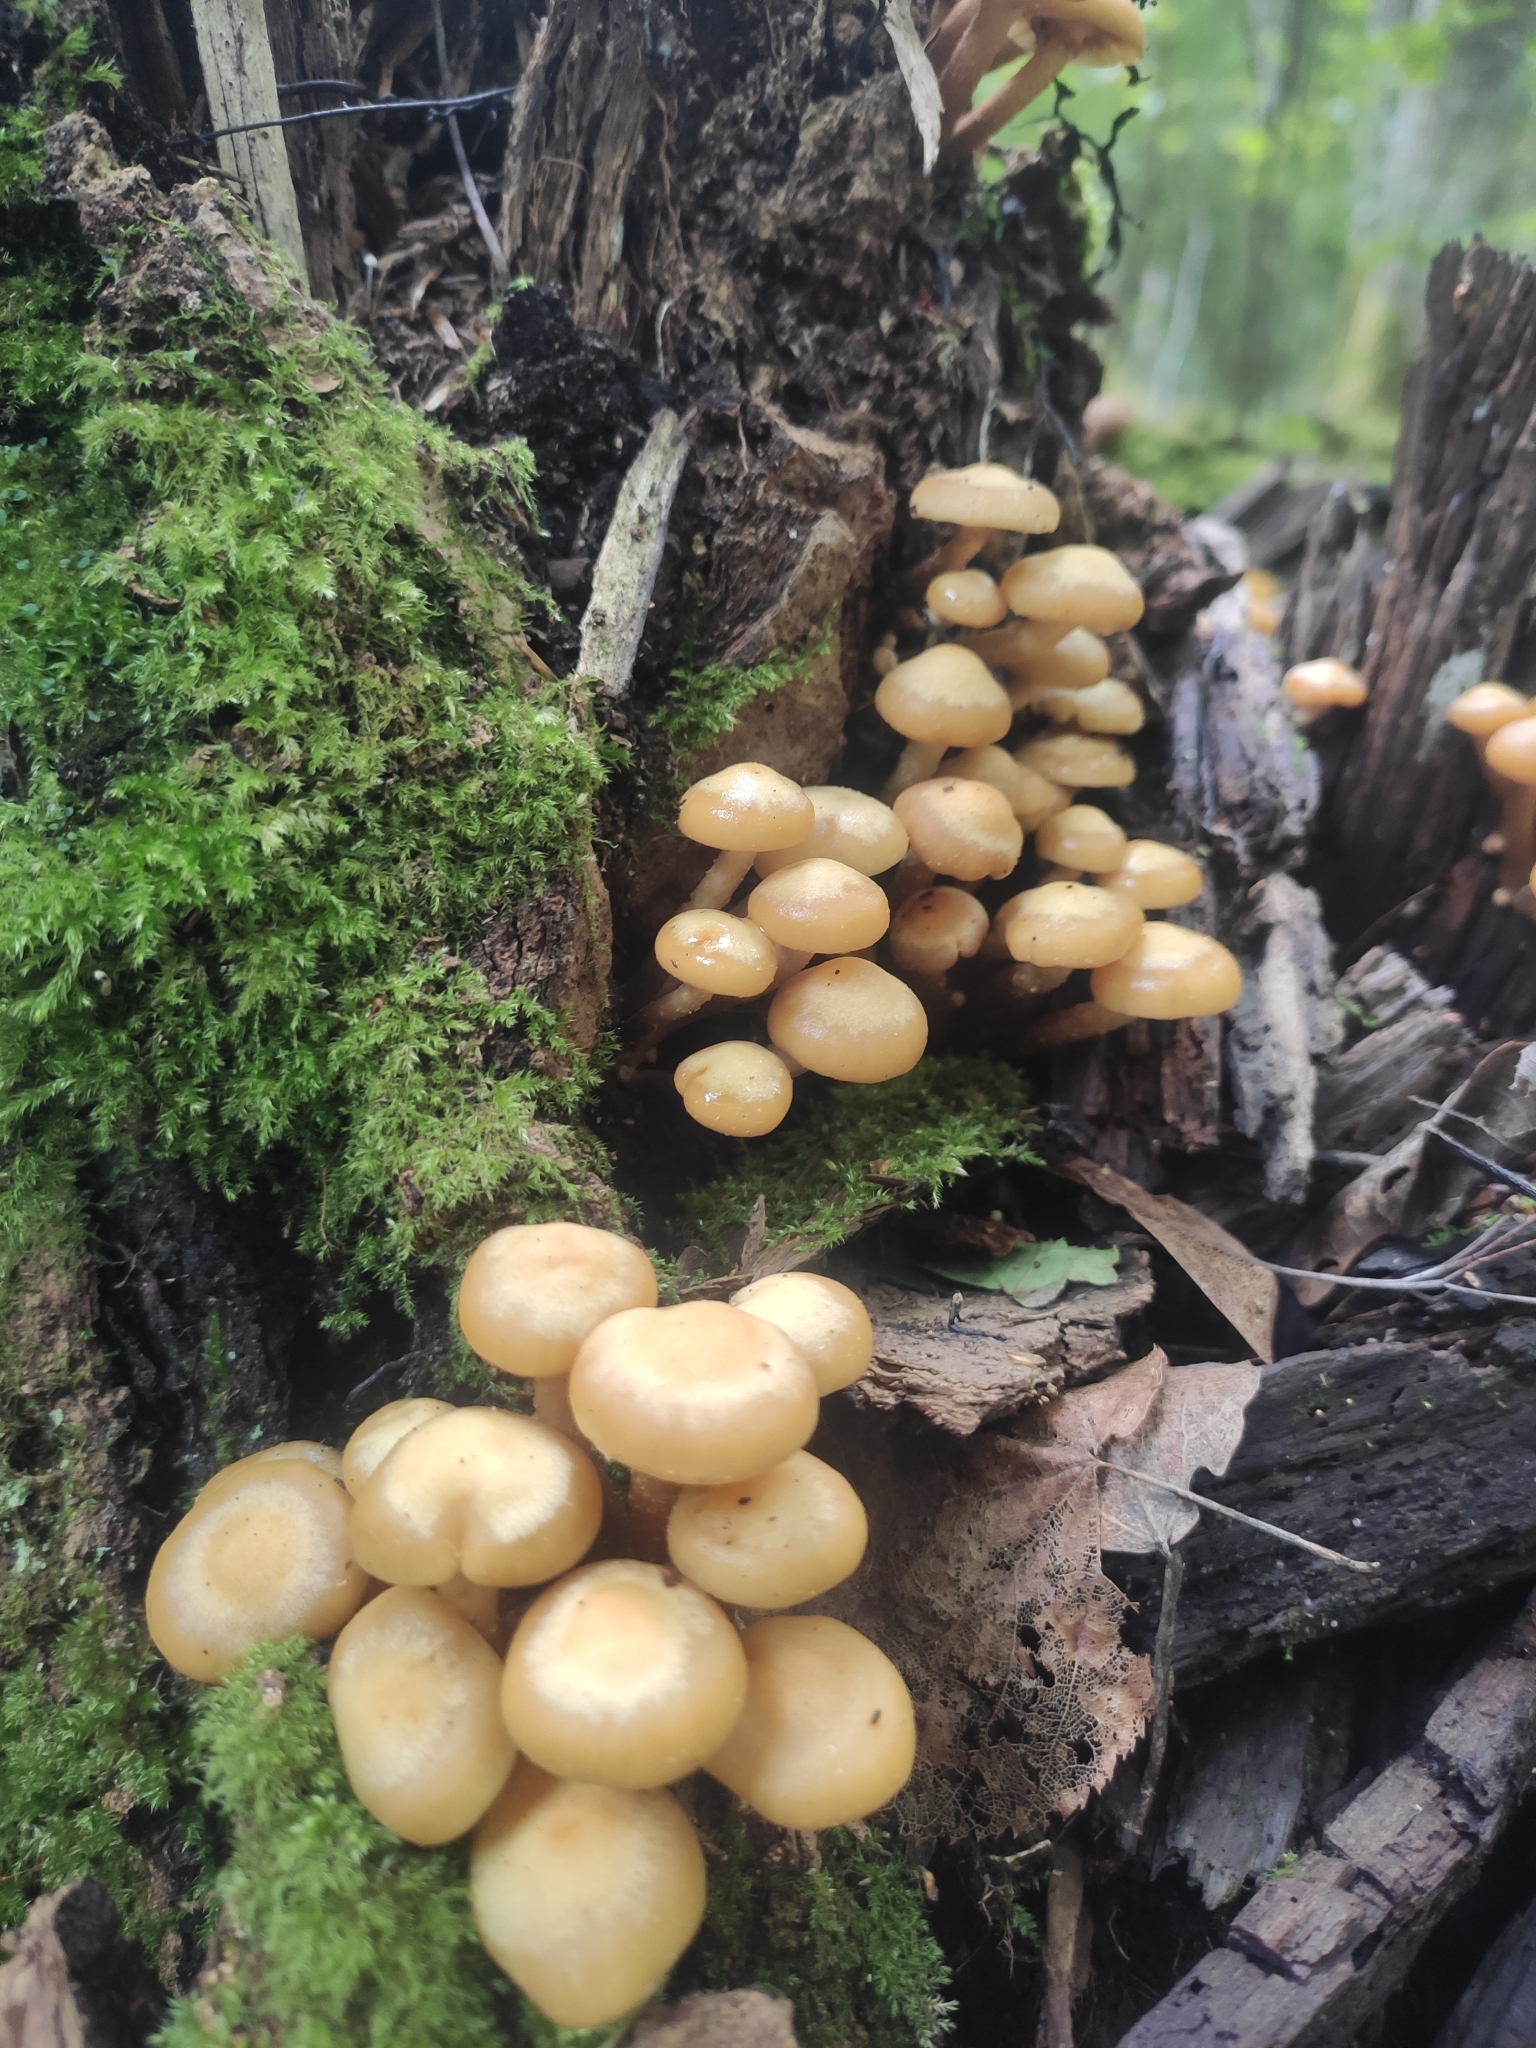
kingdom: Fungi
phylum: Basidiomycota
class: Agaricomycetes
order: Agaricales
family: Strophariaceae
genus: Kuehneromyces
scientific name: Kuehneromyces mutabilis
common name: Sheathed woodtuft
